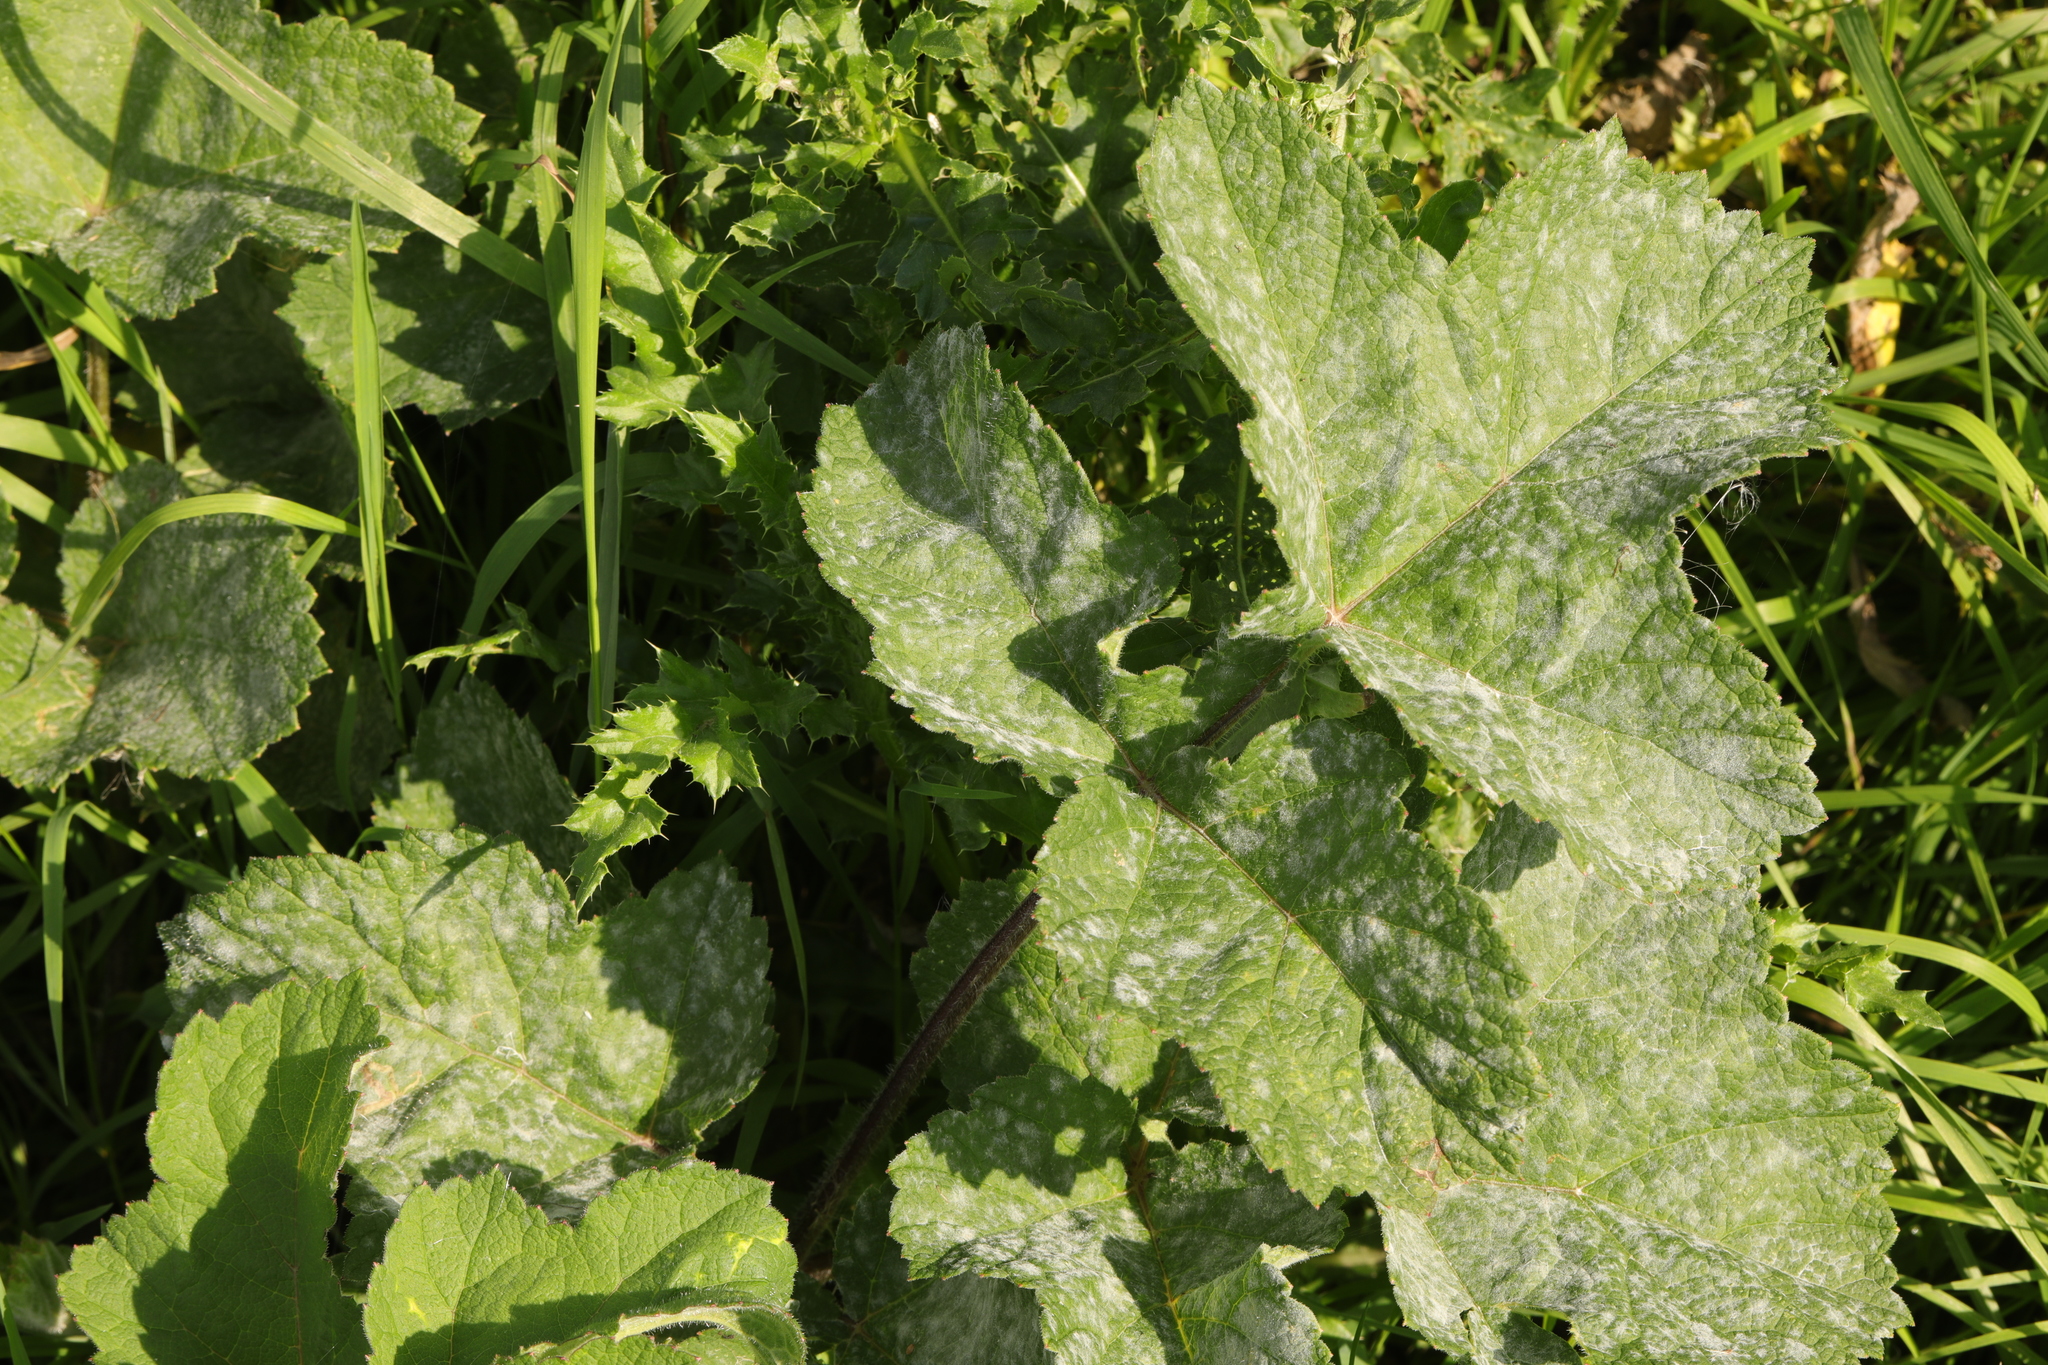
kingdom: Plantae
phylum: Tracheophyta
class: Magnoliopsida
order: Apiales
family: Apiaceae
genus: Heracleum
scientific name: Heracleum sphondylium
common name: Hogweed
